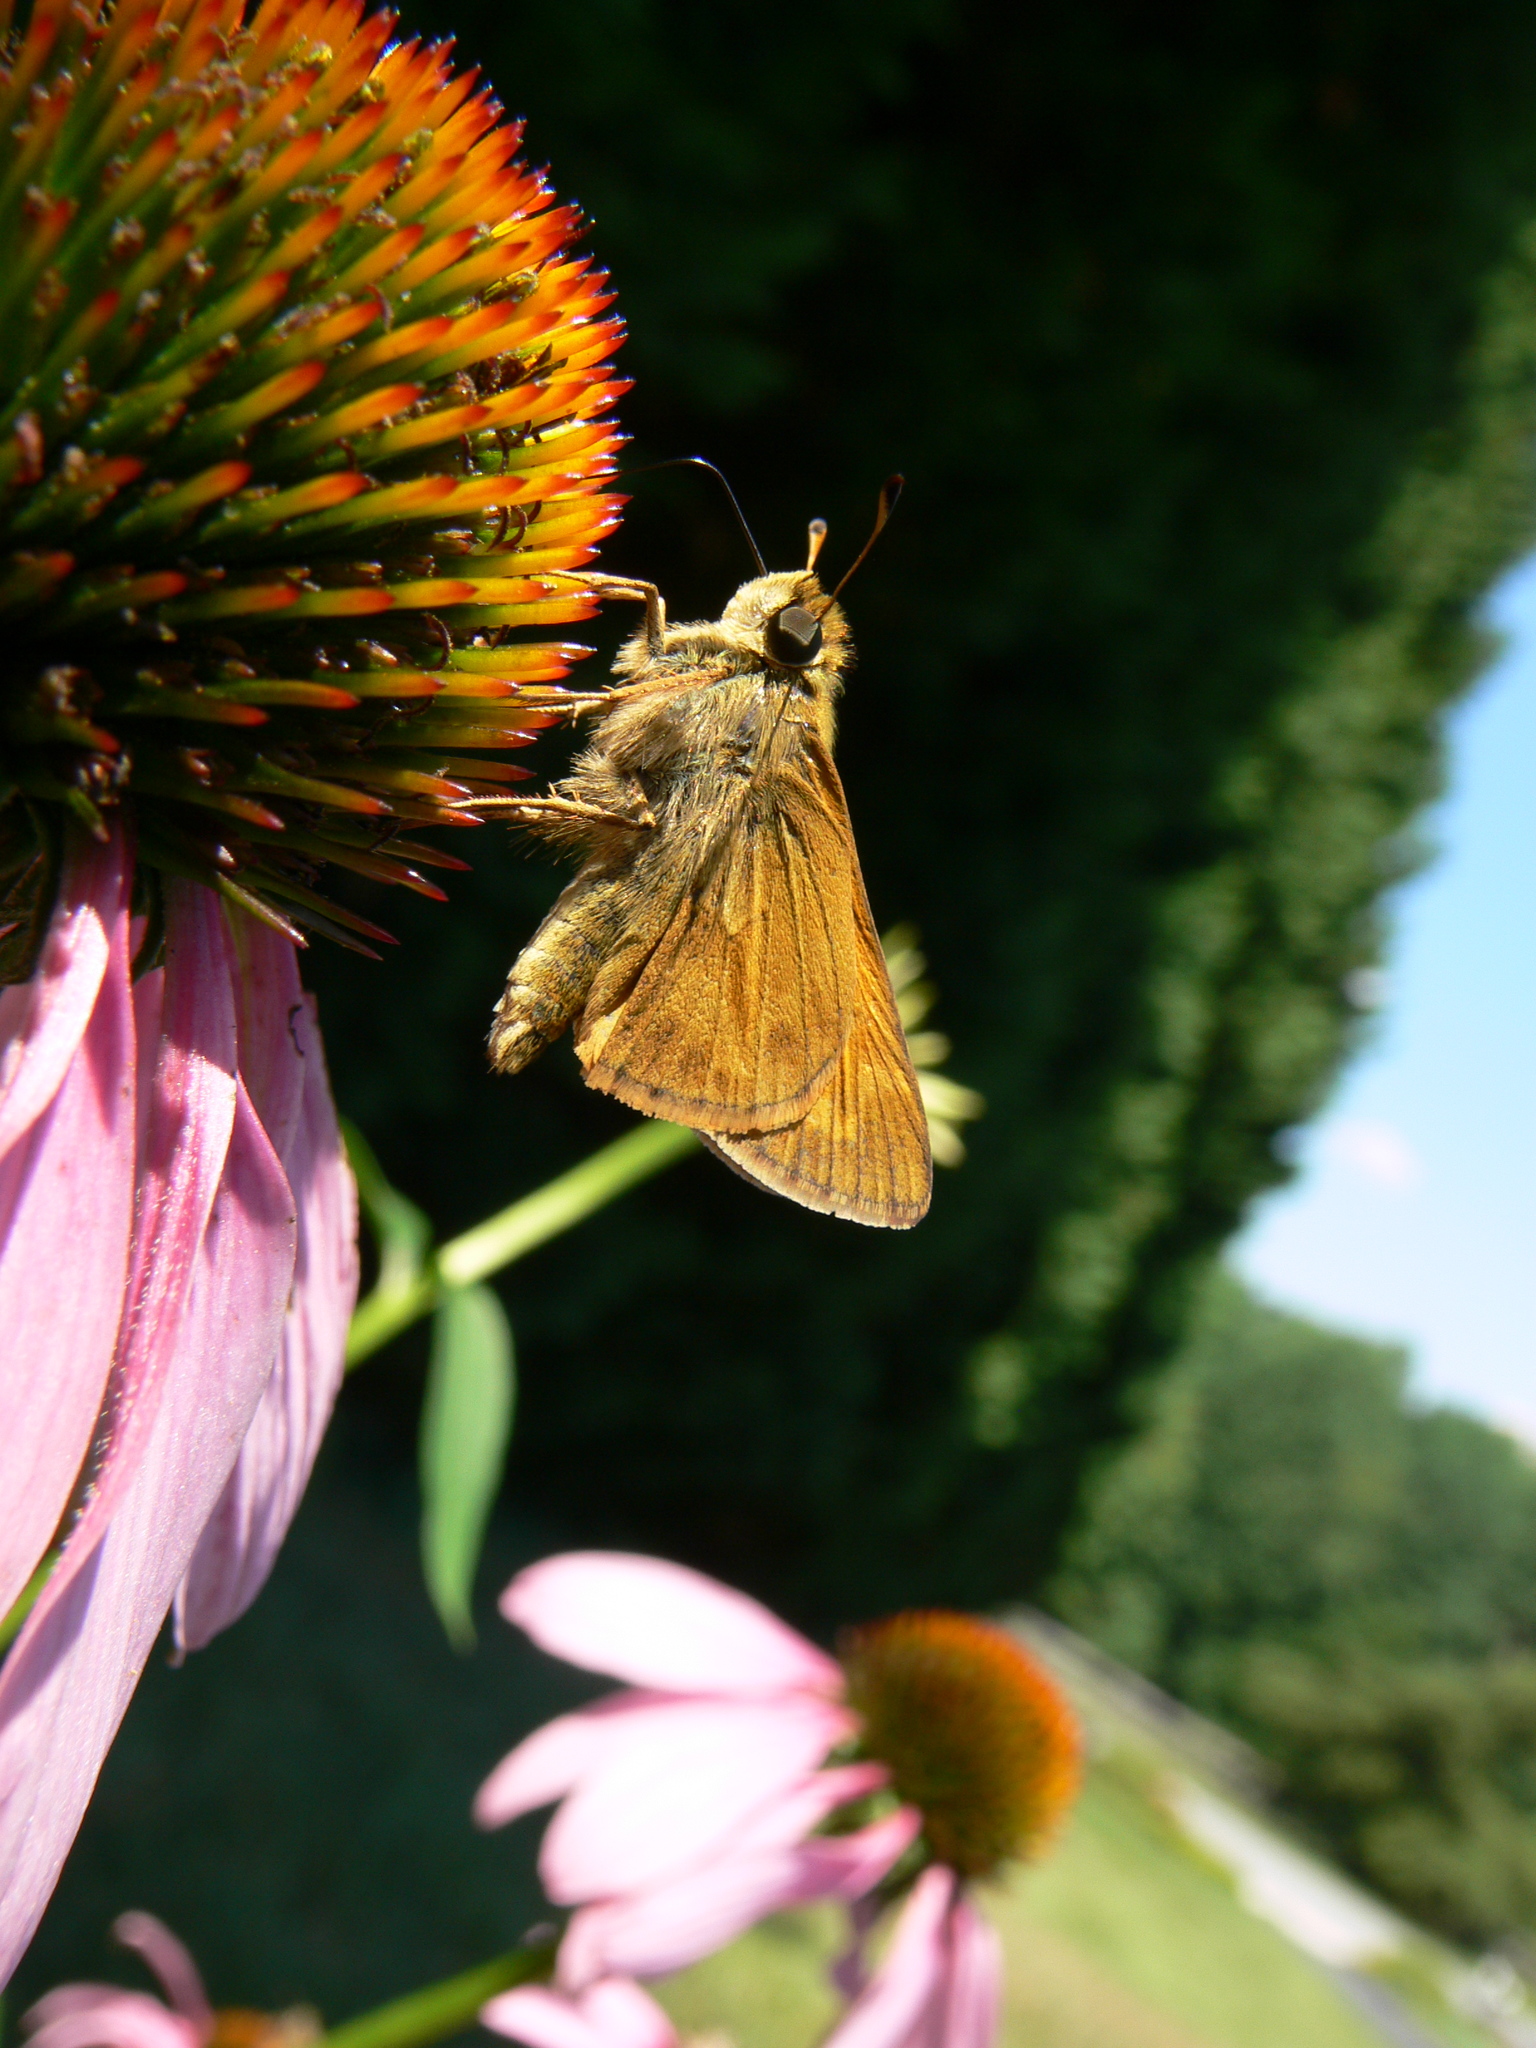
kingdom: Animalia
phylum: Arthropoda
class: Insecta
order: Lepidoptera
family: Hesperiidae
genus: Atalopedes
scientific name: Atalopedes
